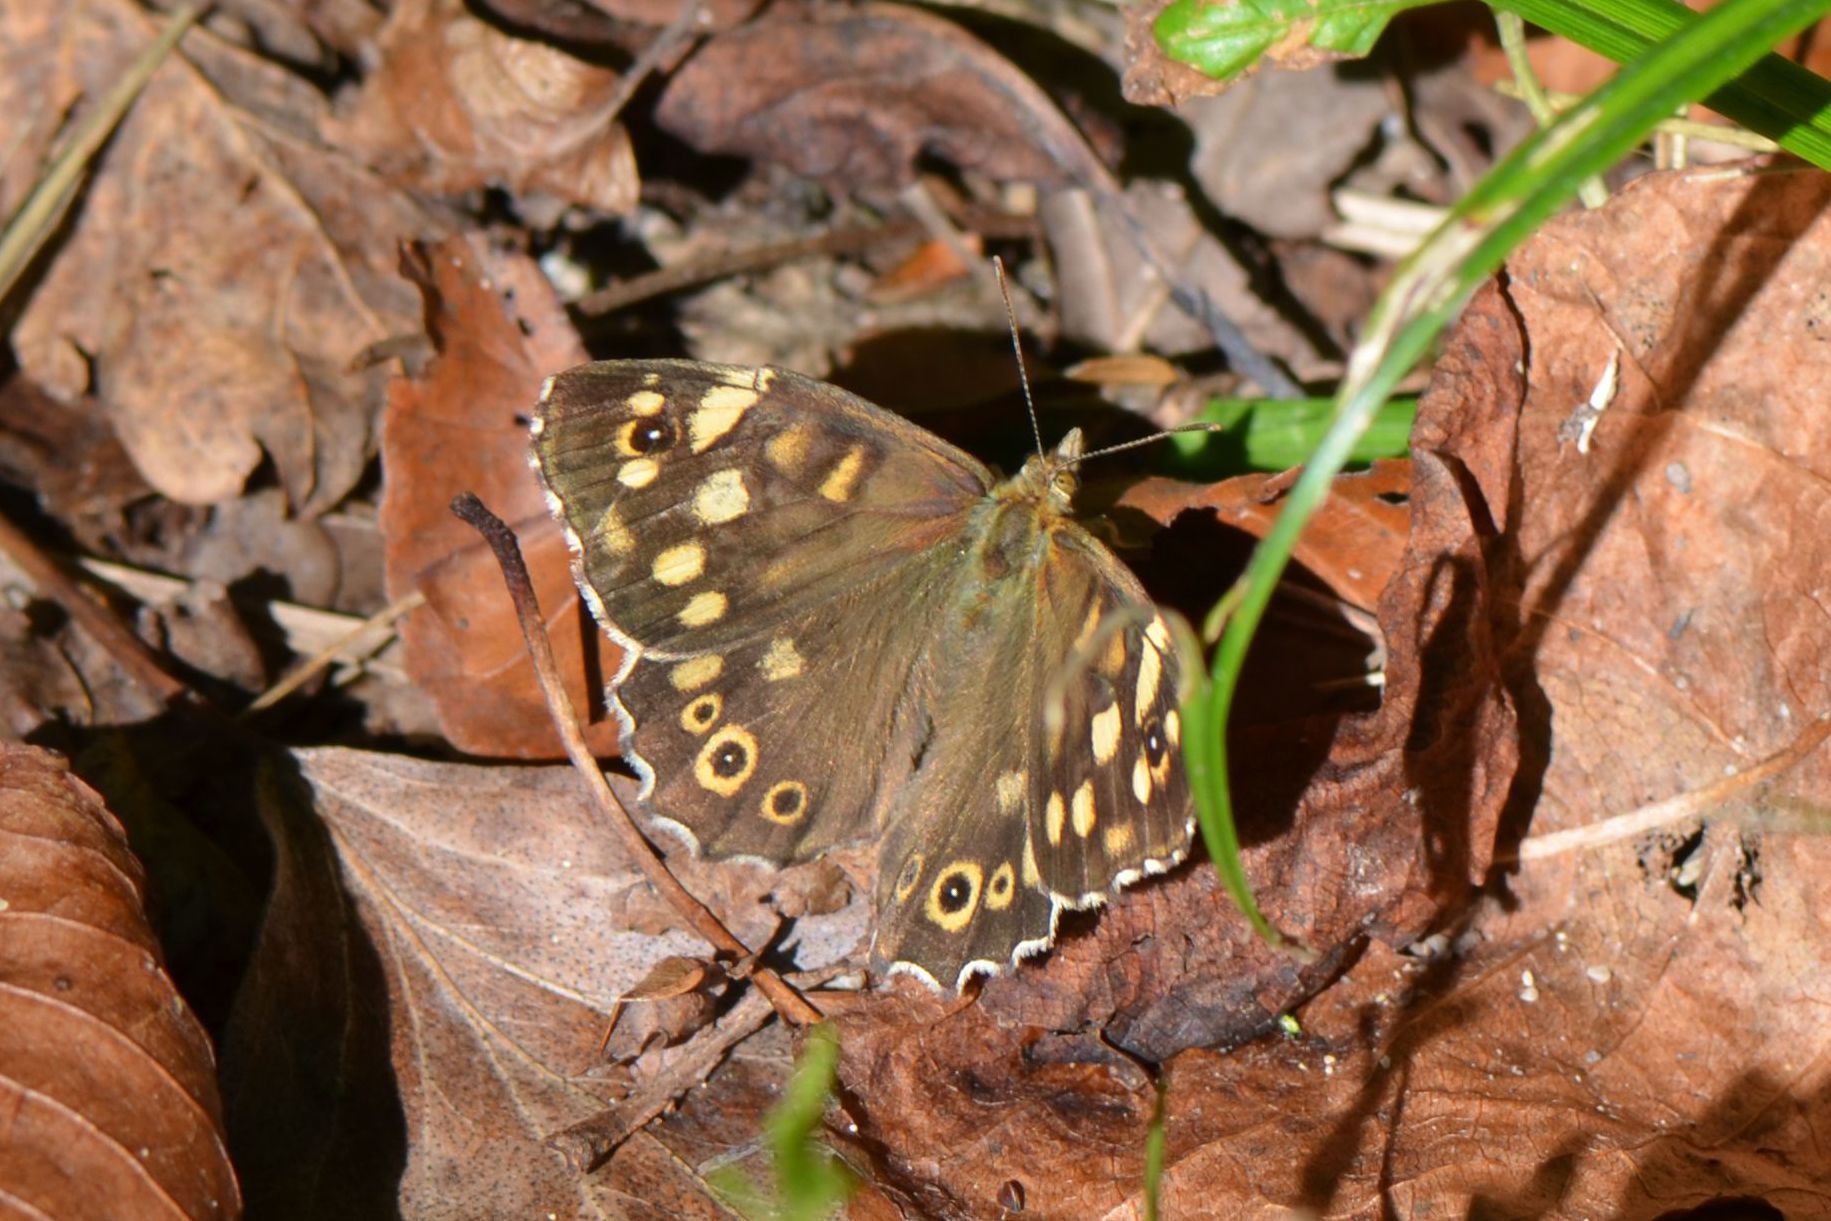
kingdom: Animalia
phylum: Arthropoda
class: Insecta
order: Lepidoptera
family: Nymphalidae
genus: Pararge
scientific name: Pararge aegeria
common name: Speckled wood
